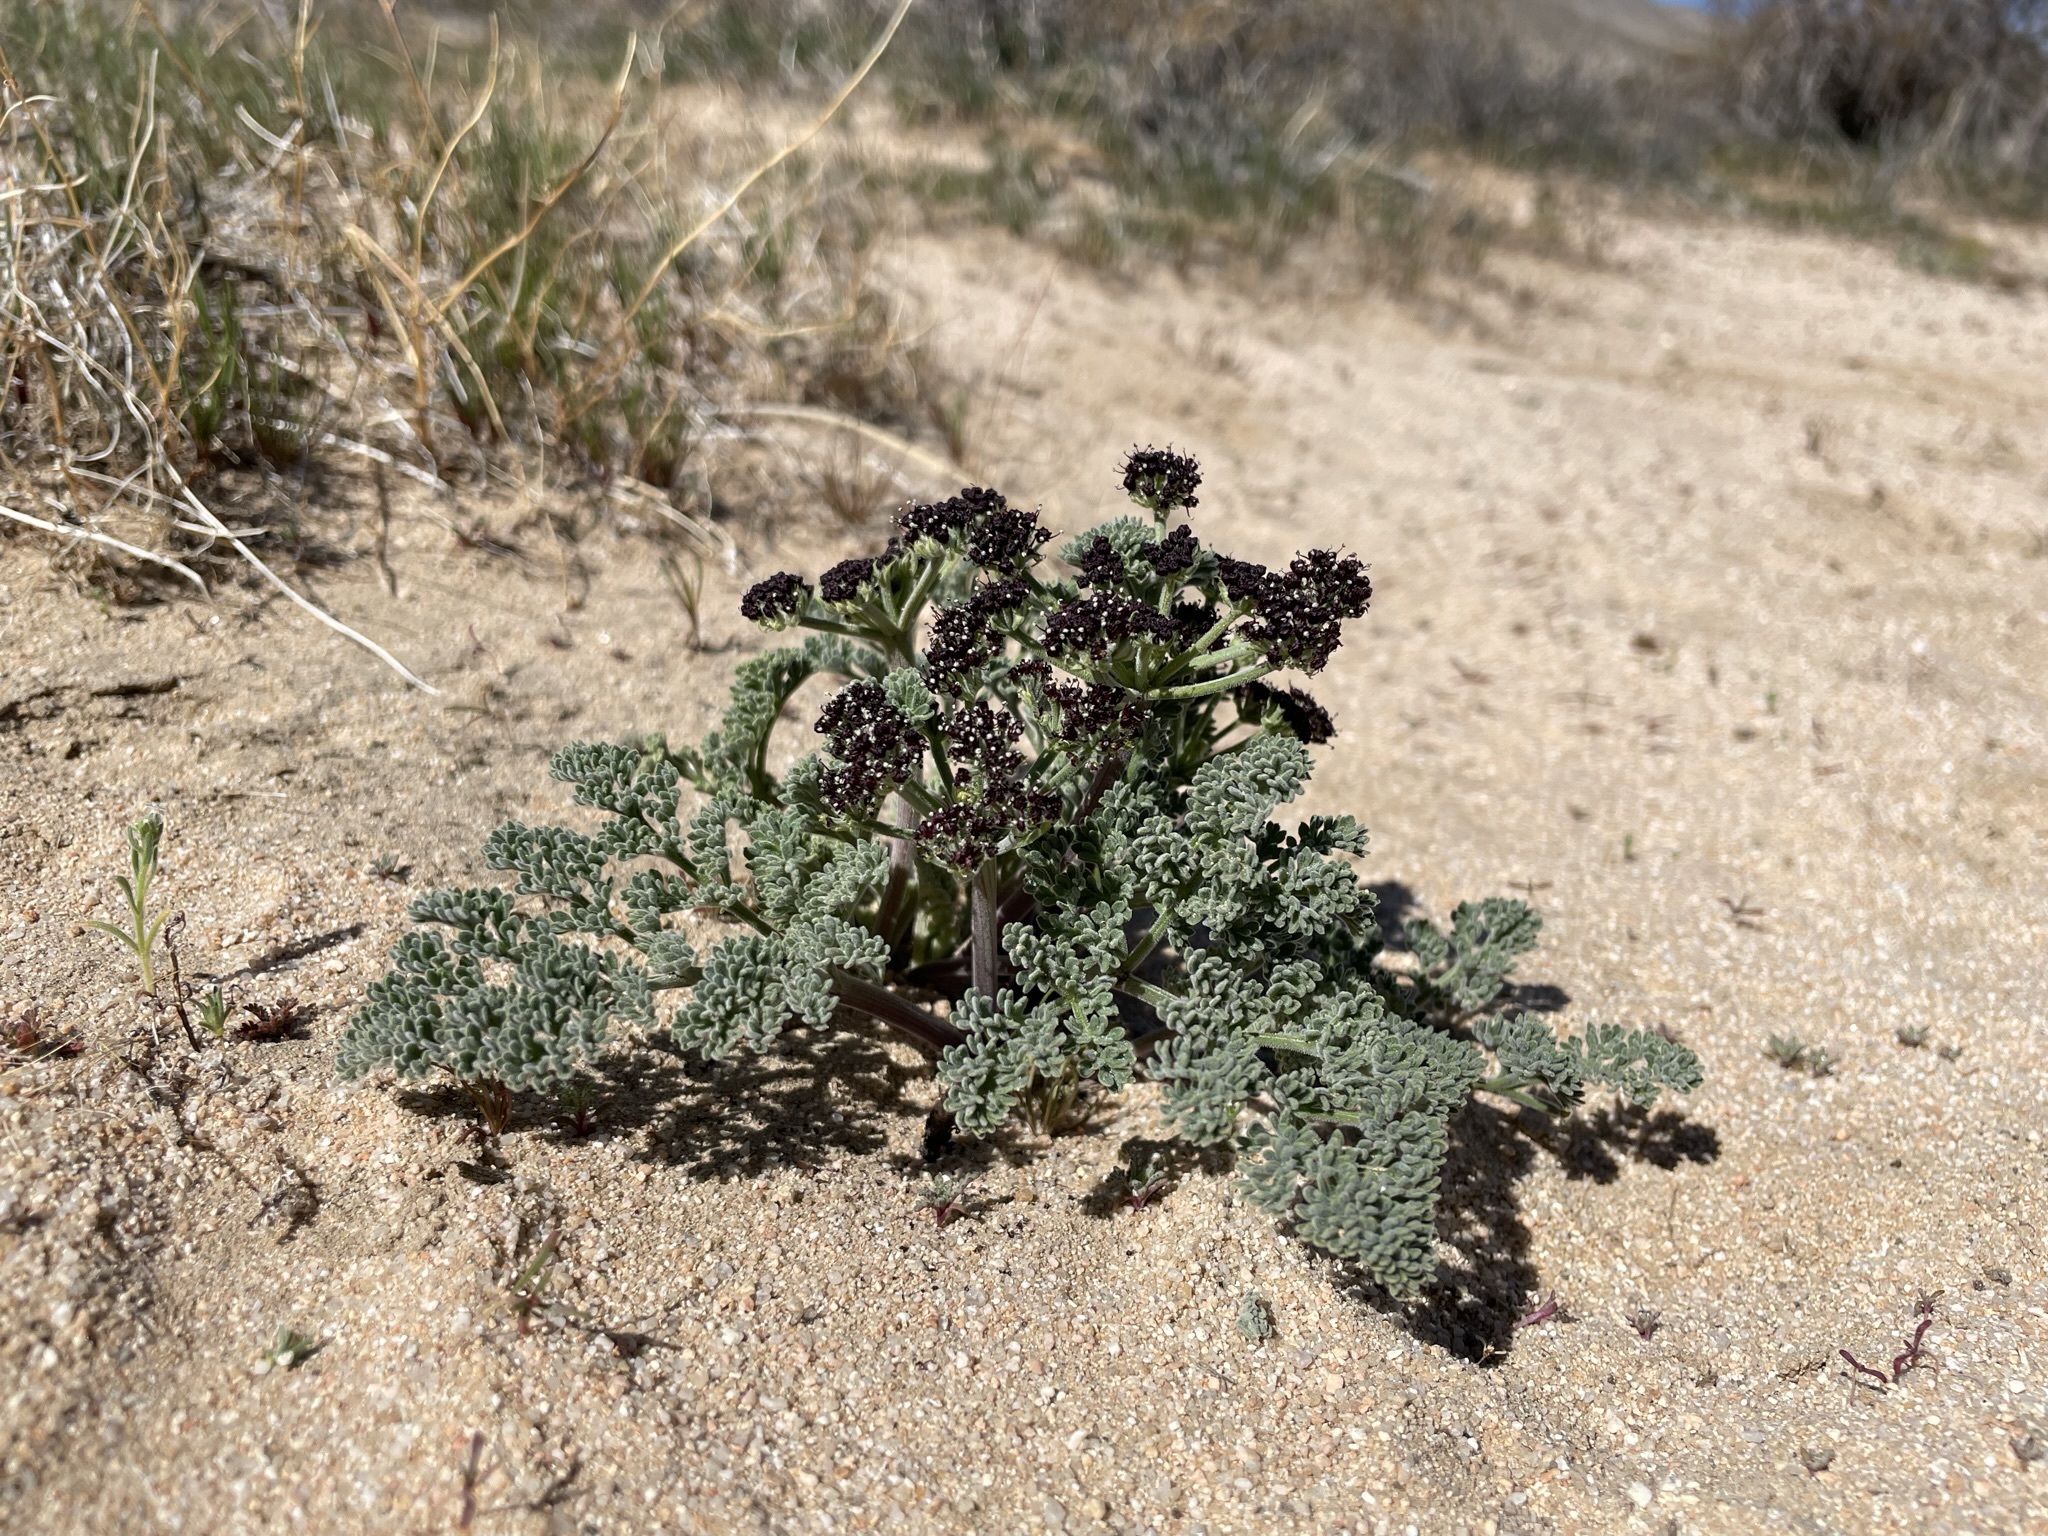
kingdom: Plantae
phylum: Tracheophyta
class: Magnoliopsida
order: Apiales
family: Apiaceae
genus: Lomatium
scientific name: Lomatium mohavense
